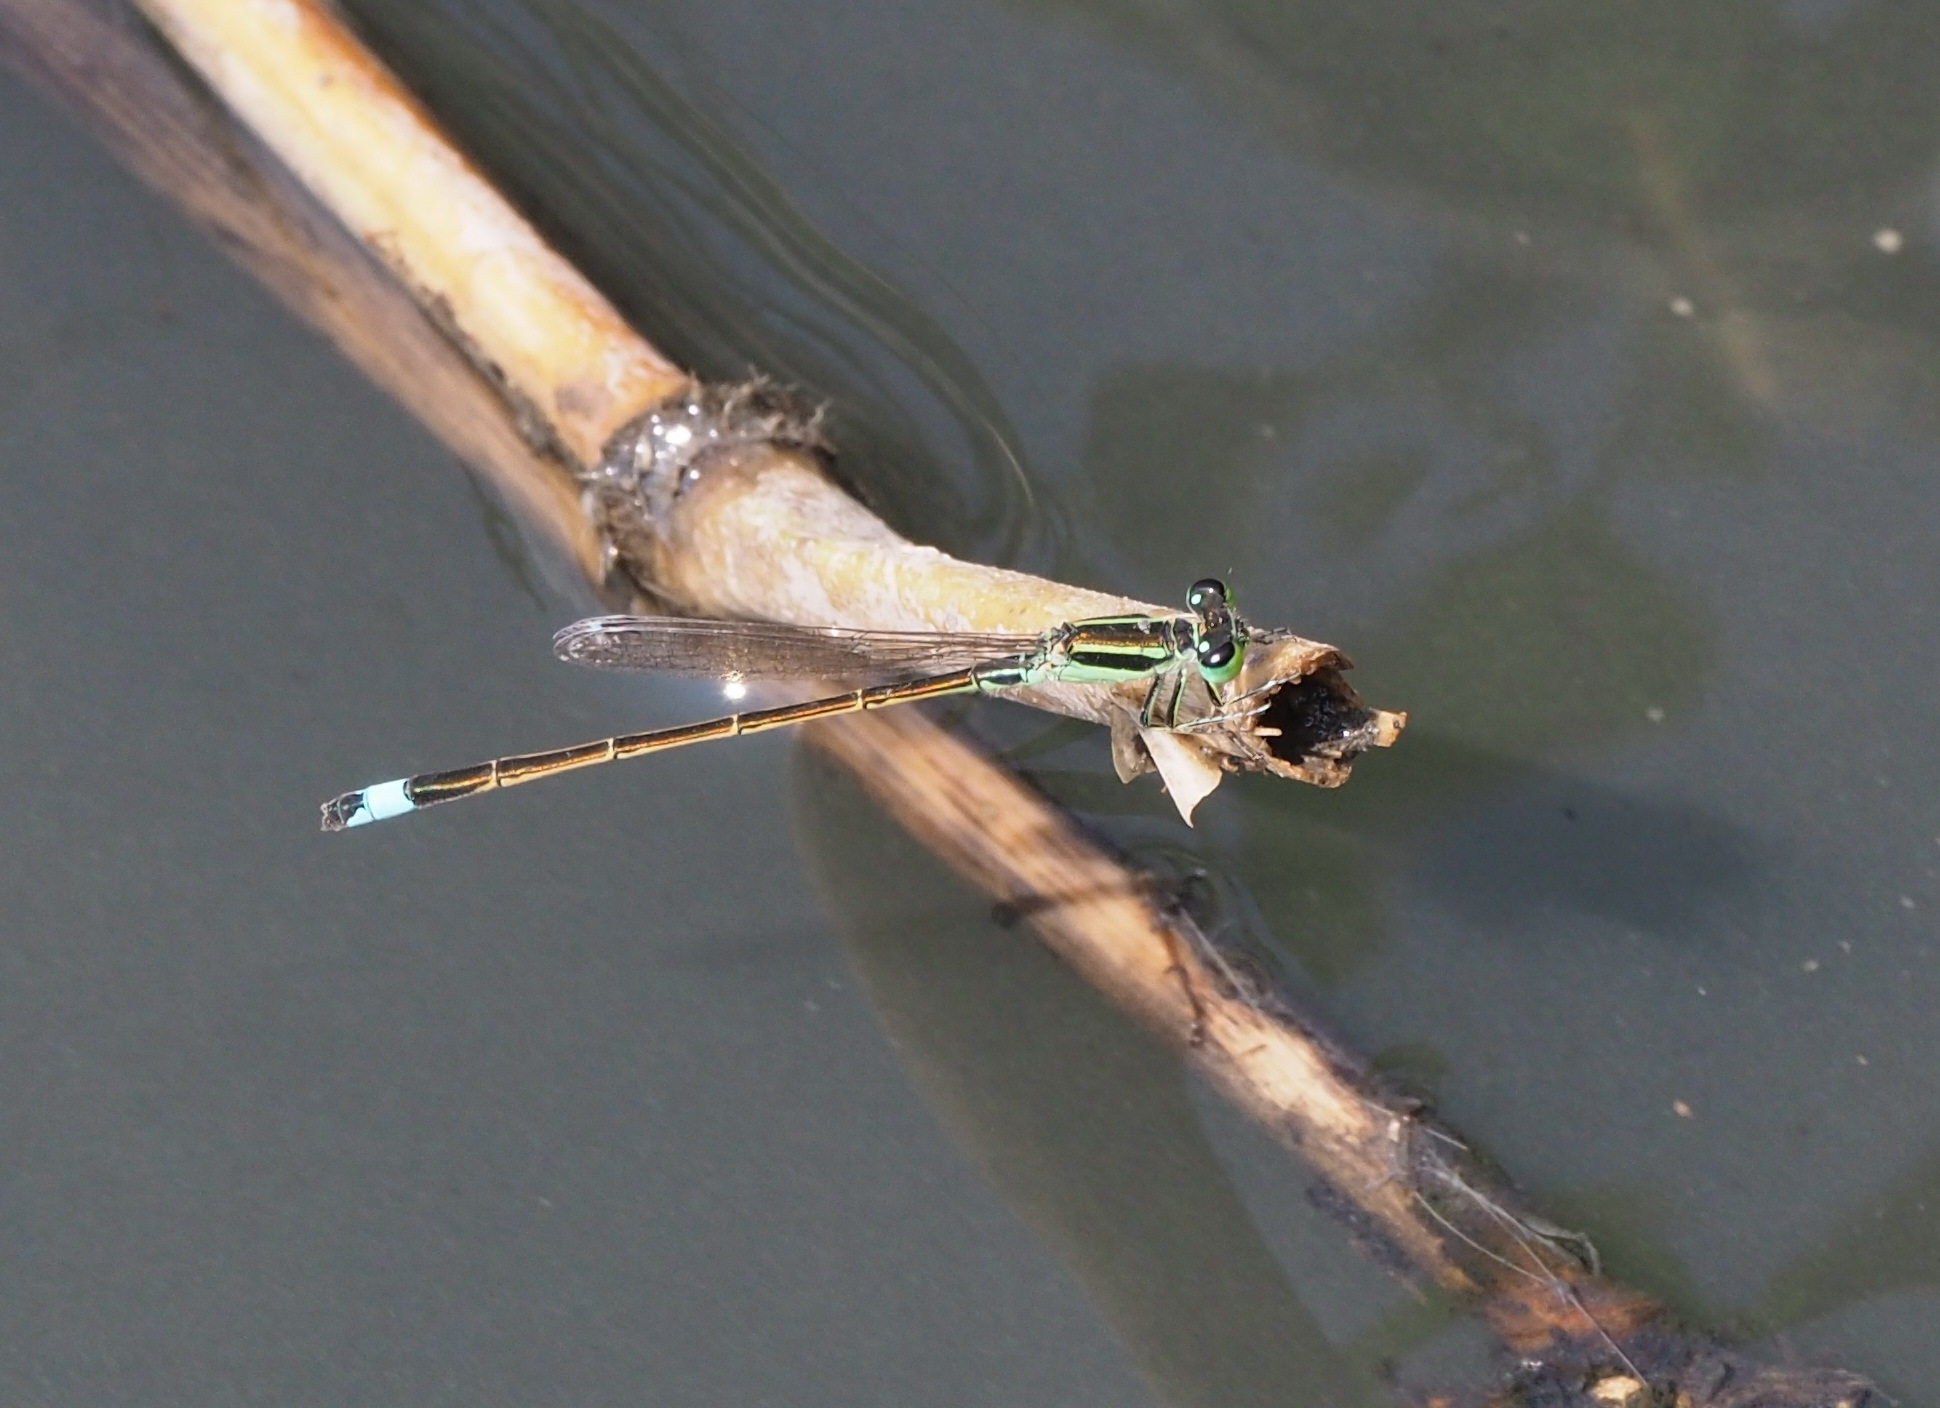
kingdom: Animalia
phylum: Arthropoda
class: Insecta
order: Odonata
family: Coenagrionidae
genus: Ischnura
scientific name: Ischnura senegalensis
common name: Tropical bluetail
